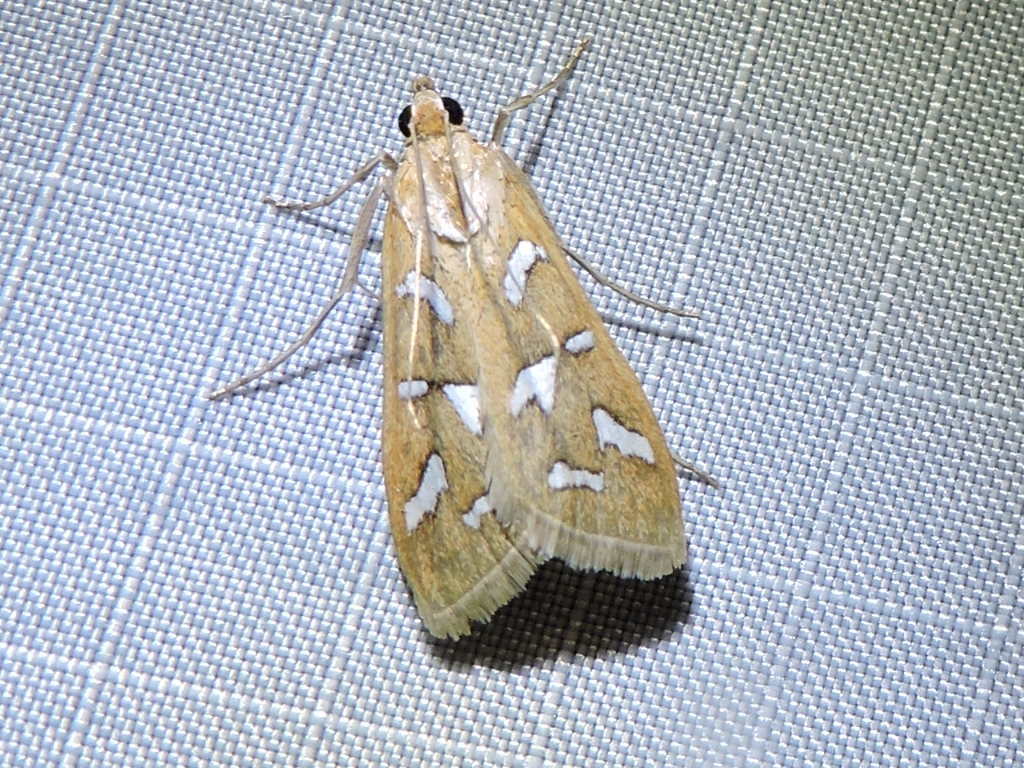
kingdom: Animalia
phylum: Arthropoda
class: Insecta
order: Lepidoptera
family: Crambidae
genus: Diastictis
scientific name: Diastictis fracturalis
